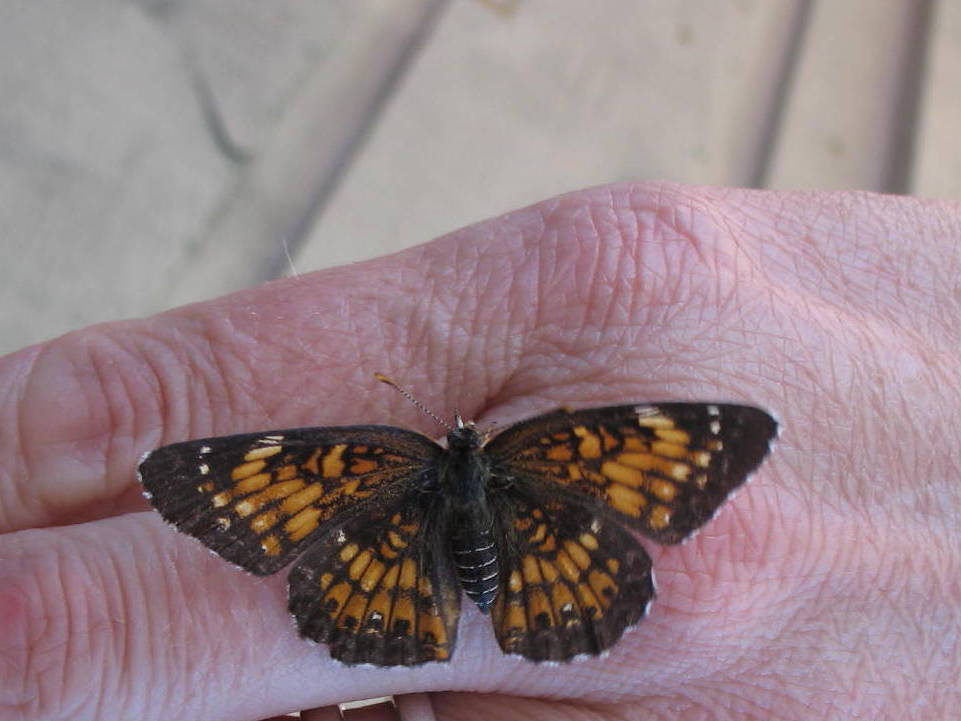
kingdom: Animalia
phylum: Arthropoda
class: Insecta
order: Lepidoptera
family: Nymphalidae
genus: Chlosyne
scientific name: Chlosyne harrisii
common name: Harris's checkerspot
